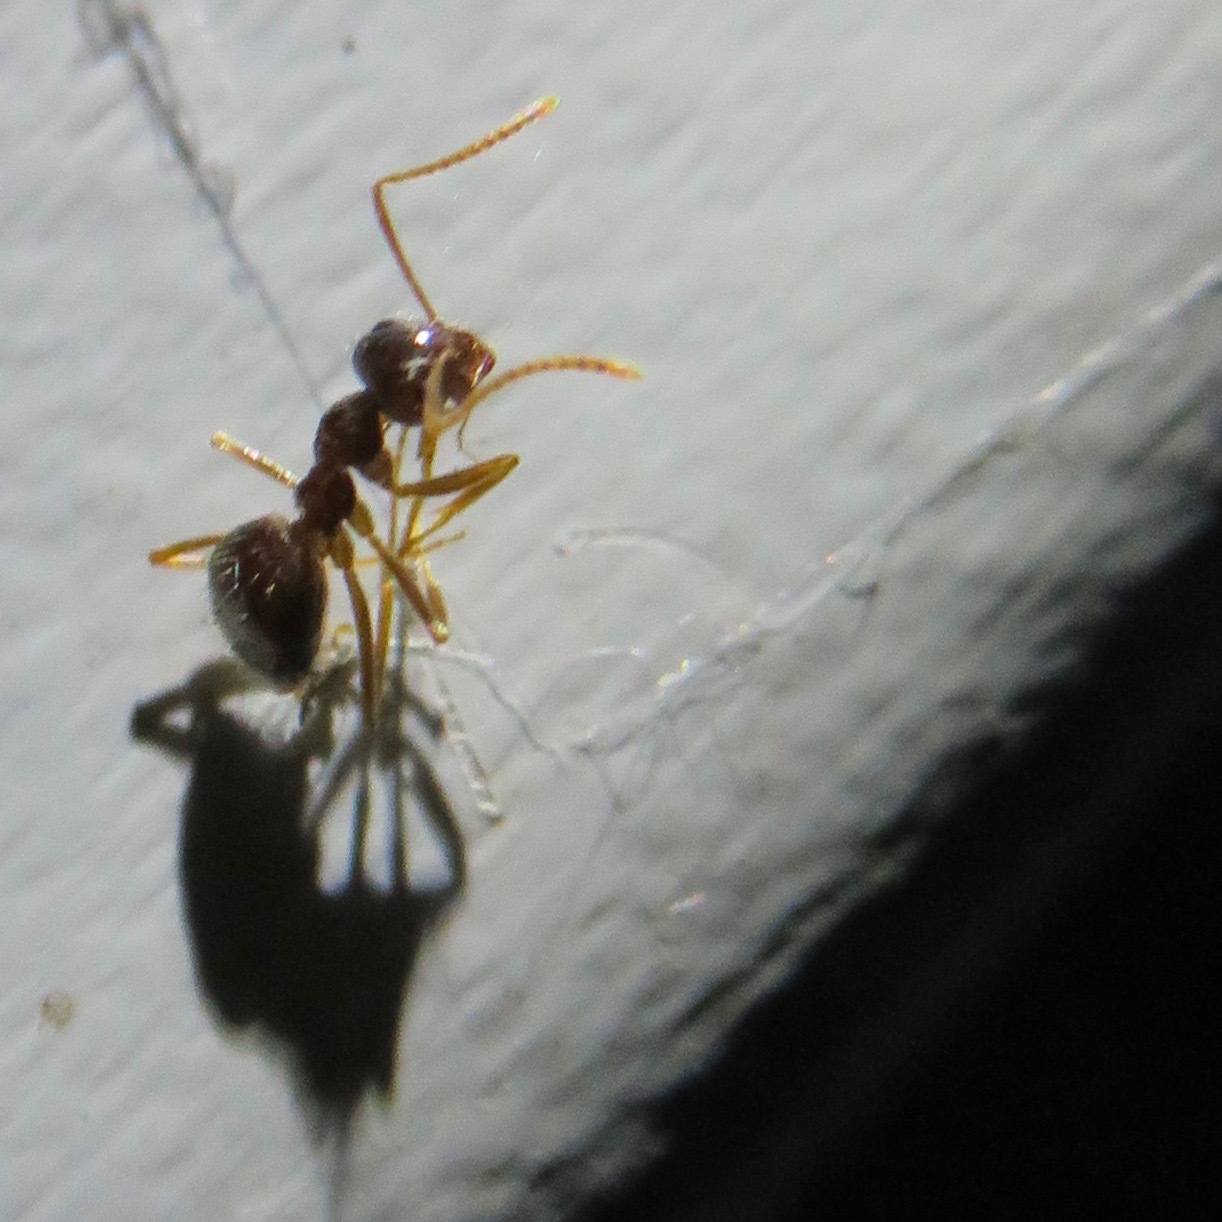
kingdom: Animalia
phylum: Arthropoda
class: Insecta
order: Hymenoptera
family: Formicidae
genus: Prenolepis
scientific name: Prenolepis imparis
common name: Small honey ant
